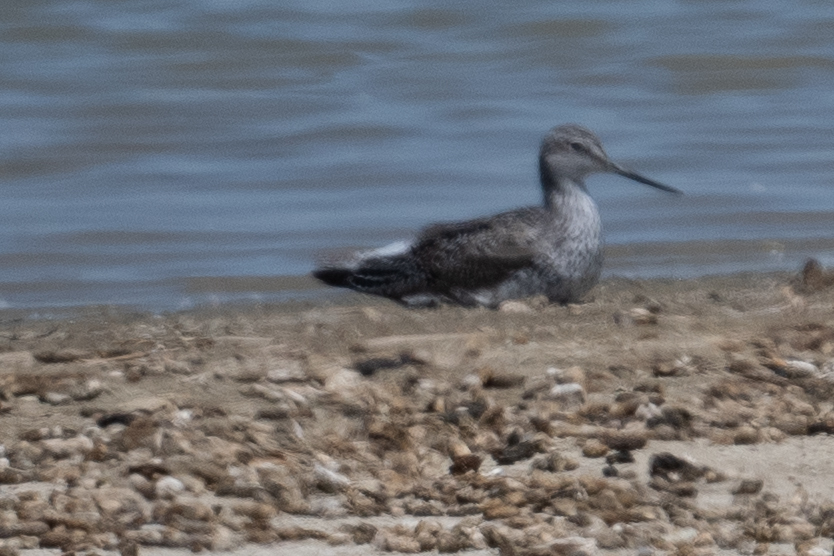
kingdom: Animalia
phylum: Chordata
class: Aves
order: Charadriiformes
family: Scolopacidae
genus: Tringa
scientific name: Tringa melanoleuca
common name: Greater yellowlegs
